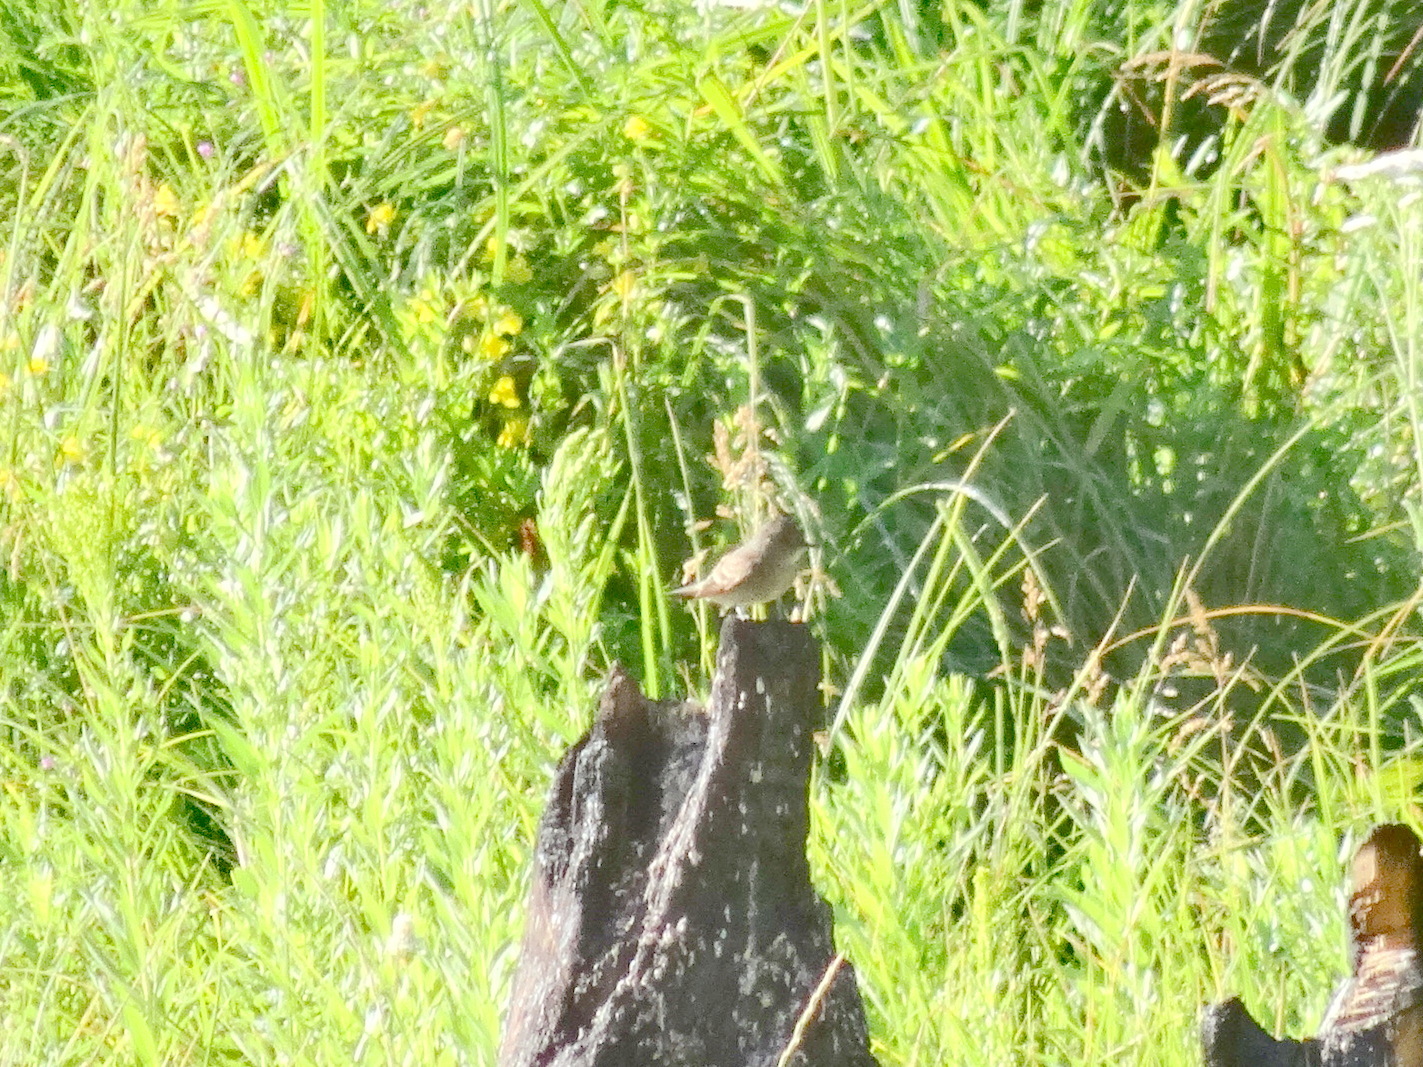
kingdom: Animalia
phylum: Chordata
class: Aves
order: Passeriformes
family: Tyrannidae
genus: Contopus
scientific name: Contopus sordidulus
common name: Western wood-pewee
